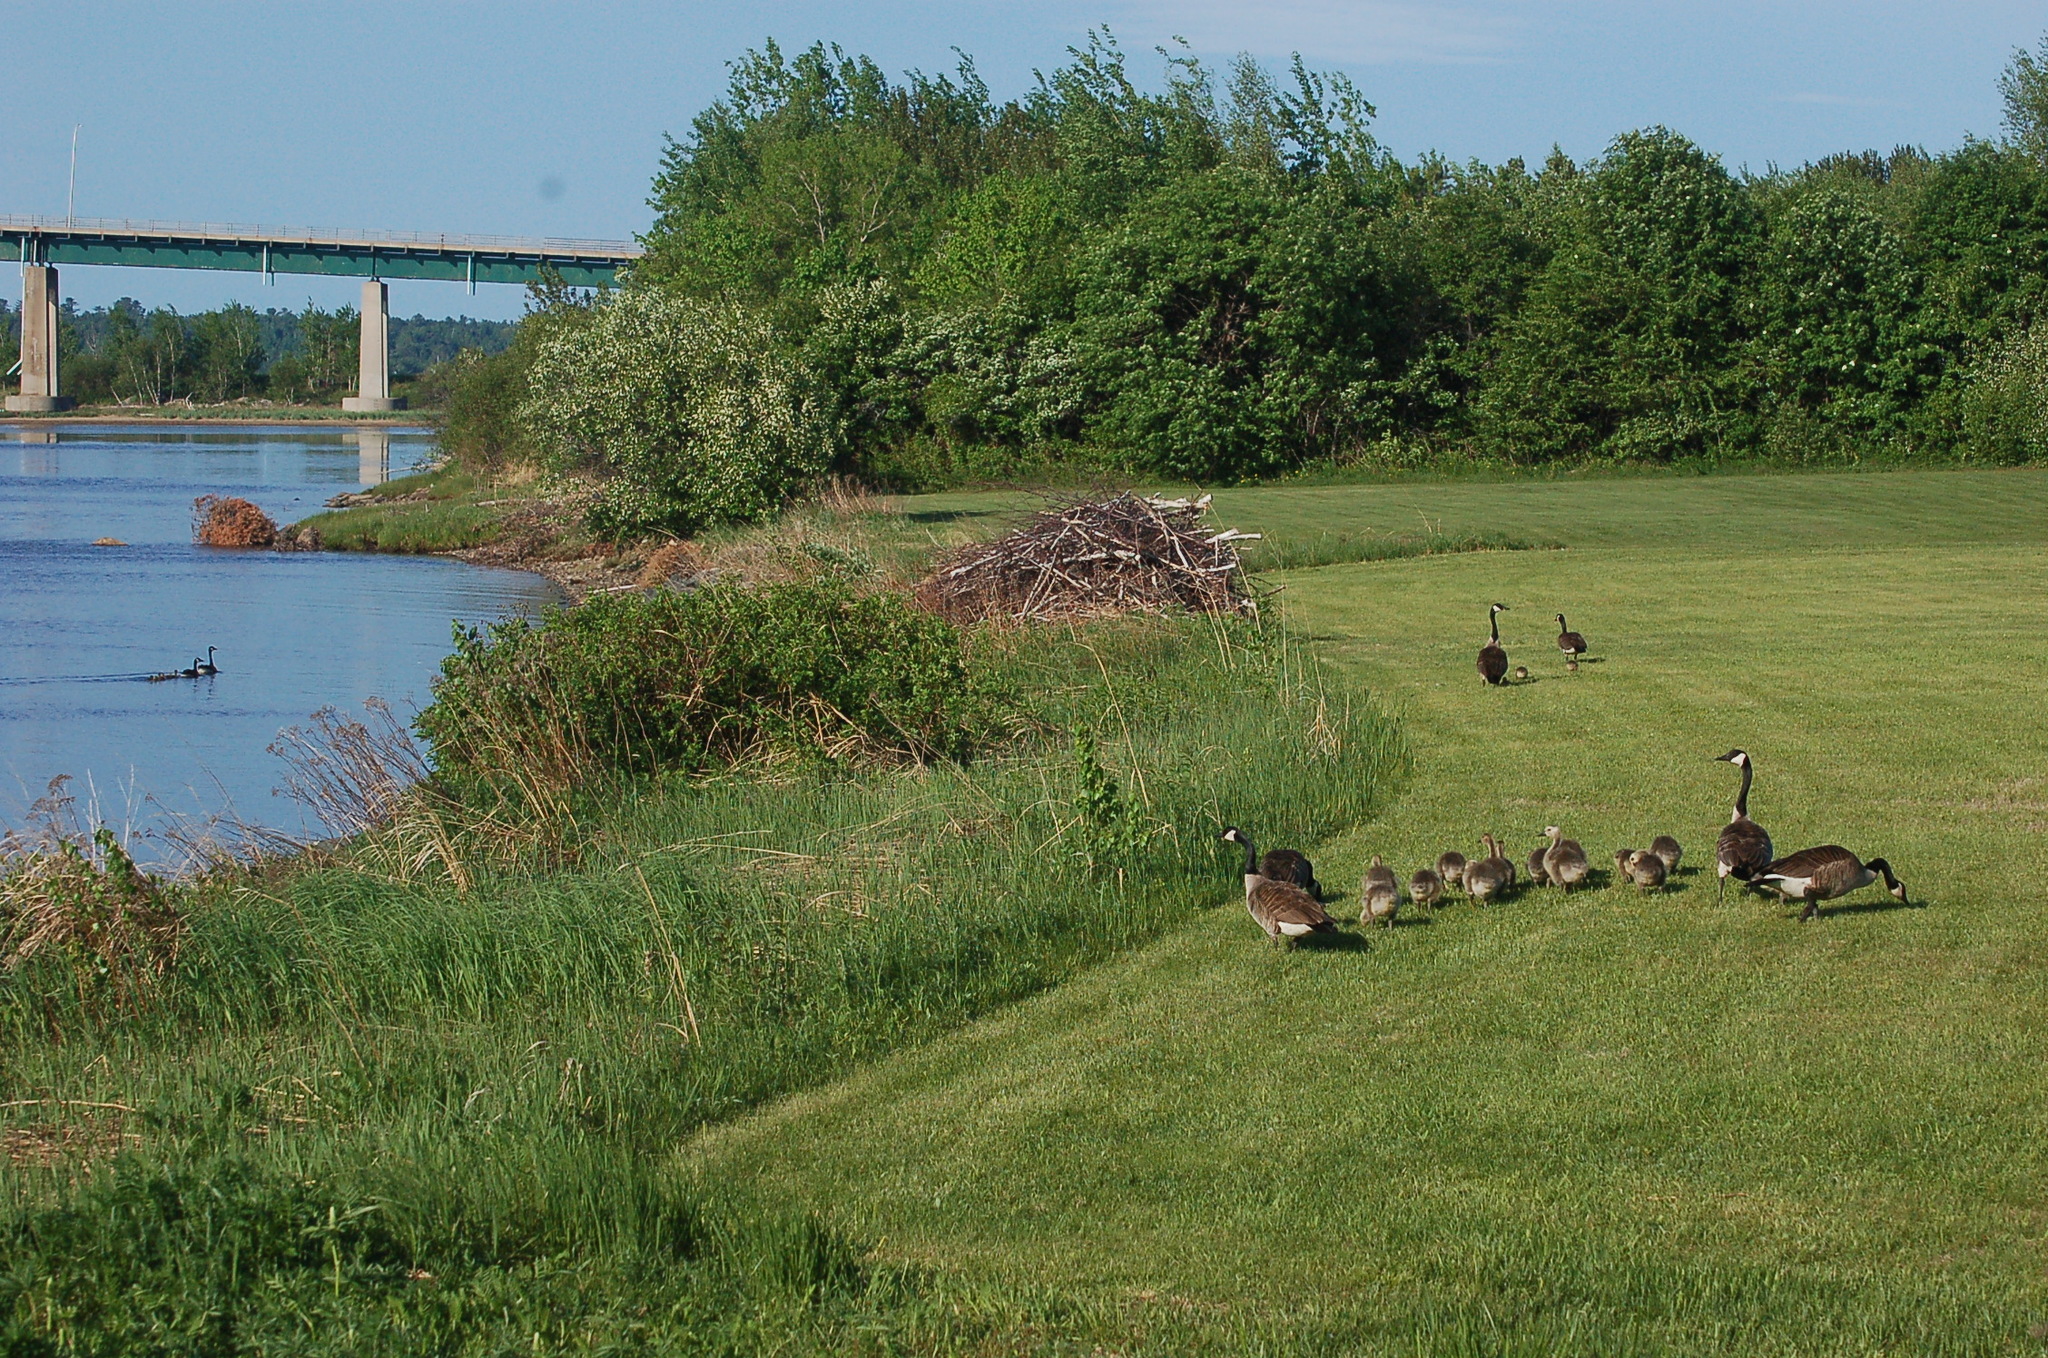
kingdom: Animalia
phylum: Chordata
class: Aves
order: Anseriformes
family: Anatidae
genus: Branta
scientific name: Branta canadensis
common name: Canada goose
